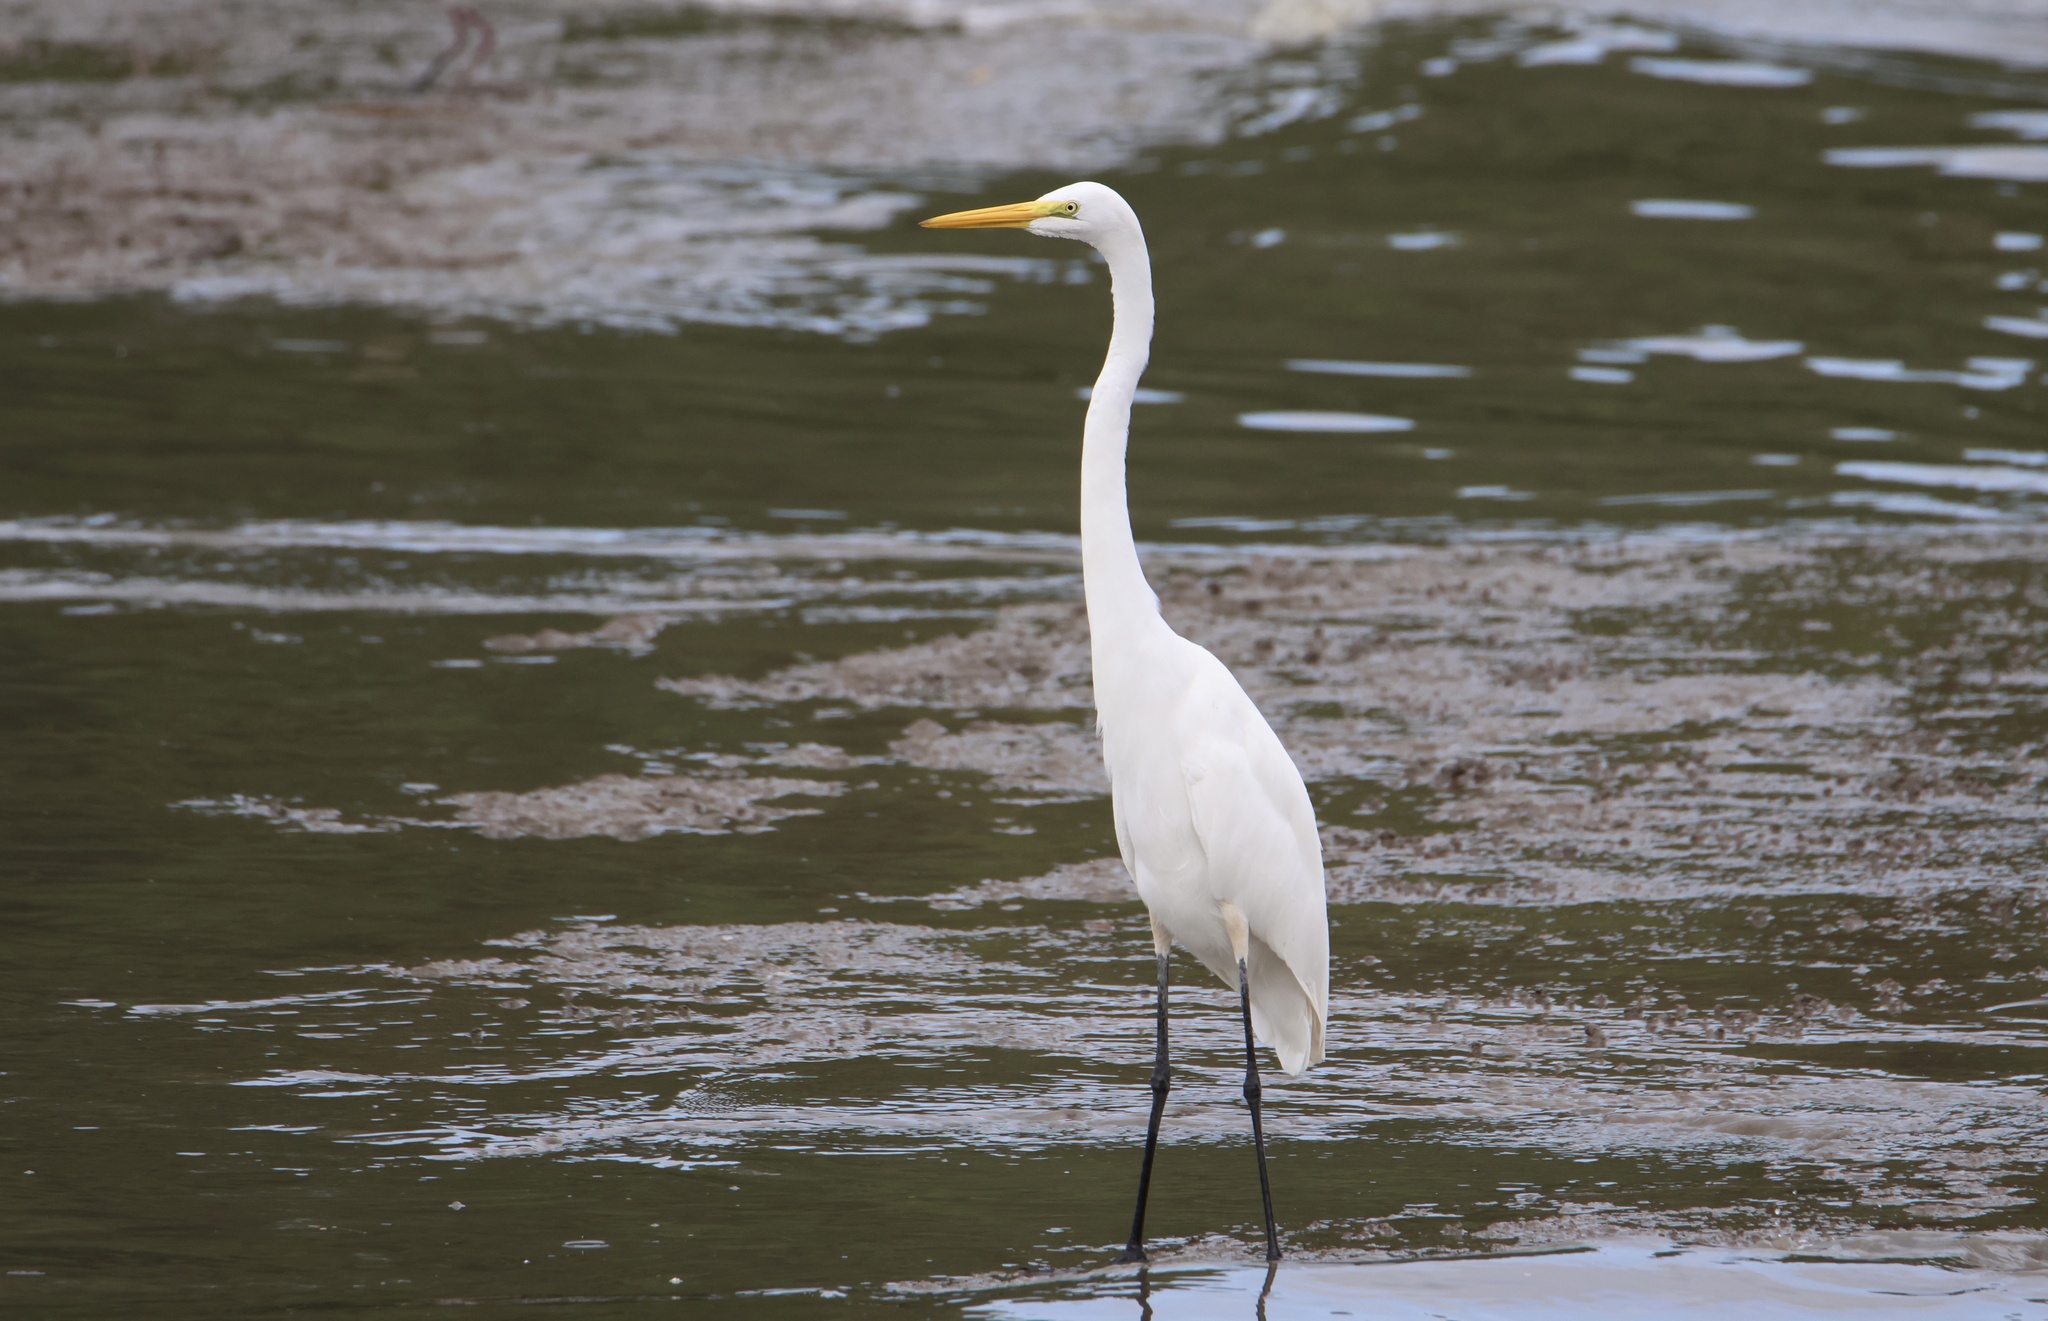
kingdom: Animalia
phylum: Chordata
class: Aves
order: Pelecaniformes
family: Ardeidae
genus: Ardea
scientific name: Ardea alba
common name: Great egret
